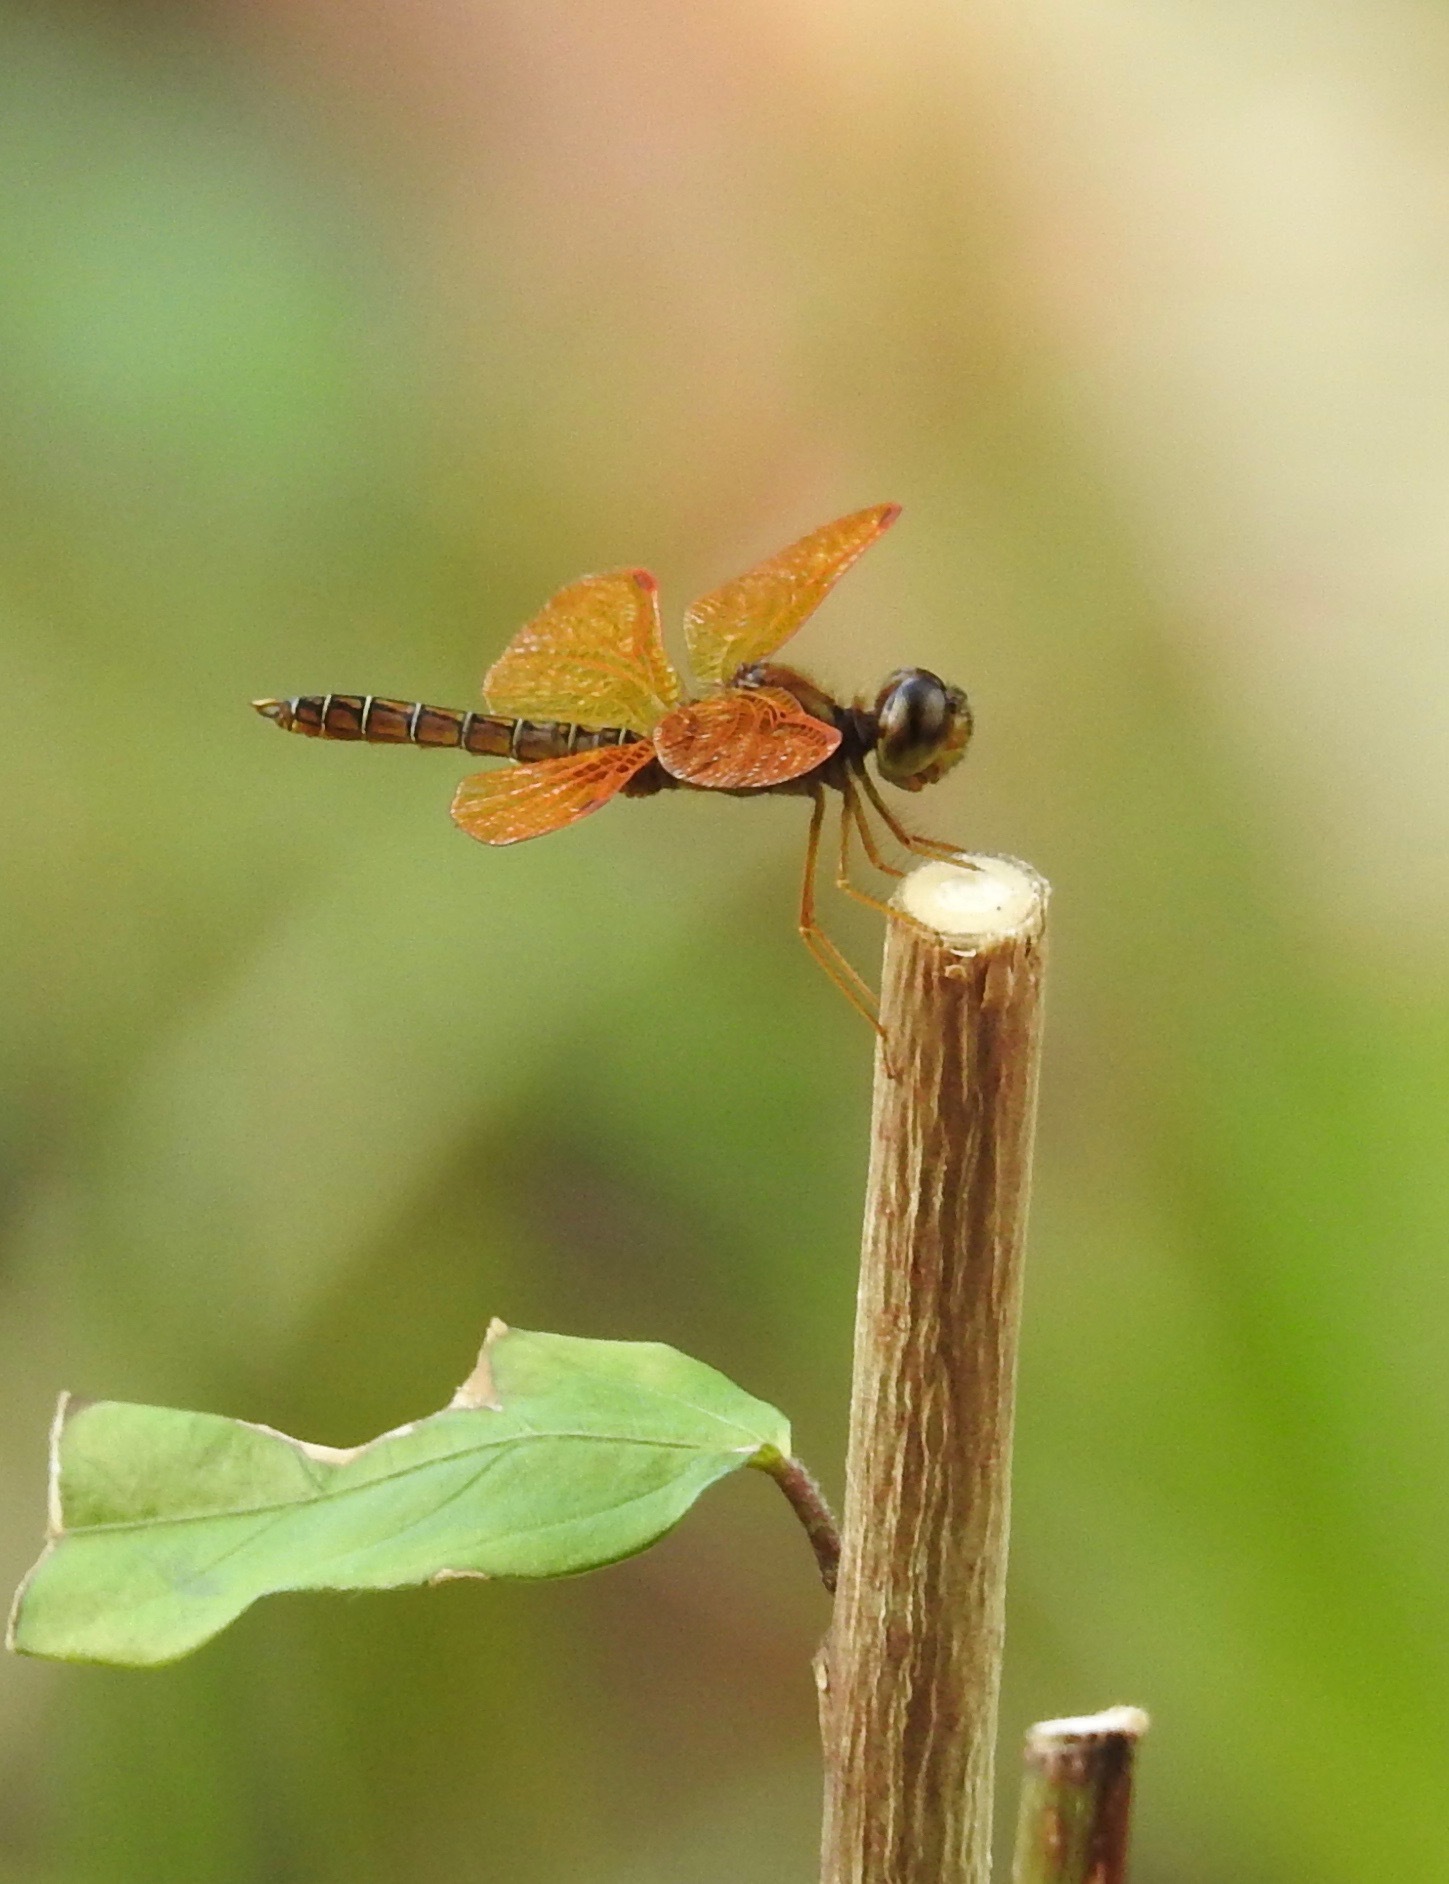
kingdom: Animalia
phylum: Arthropoda
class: Insecta
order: Odonata
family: Libellulidae
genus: Perithemis
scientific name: Perithemis tenera
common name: Eastern amberwing
